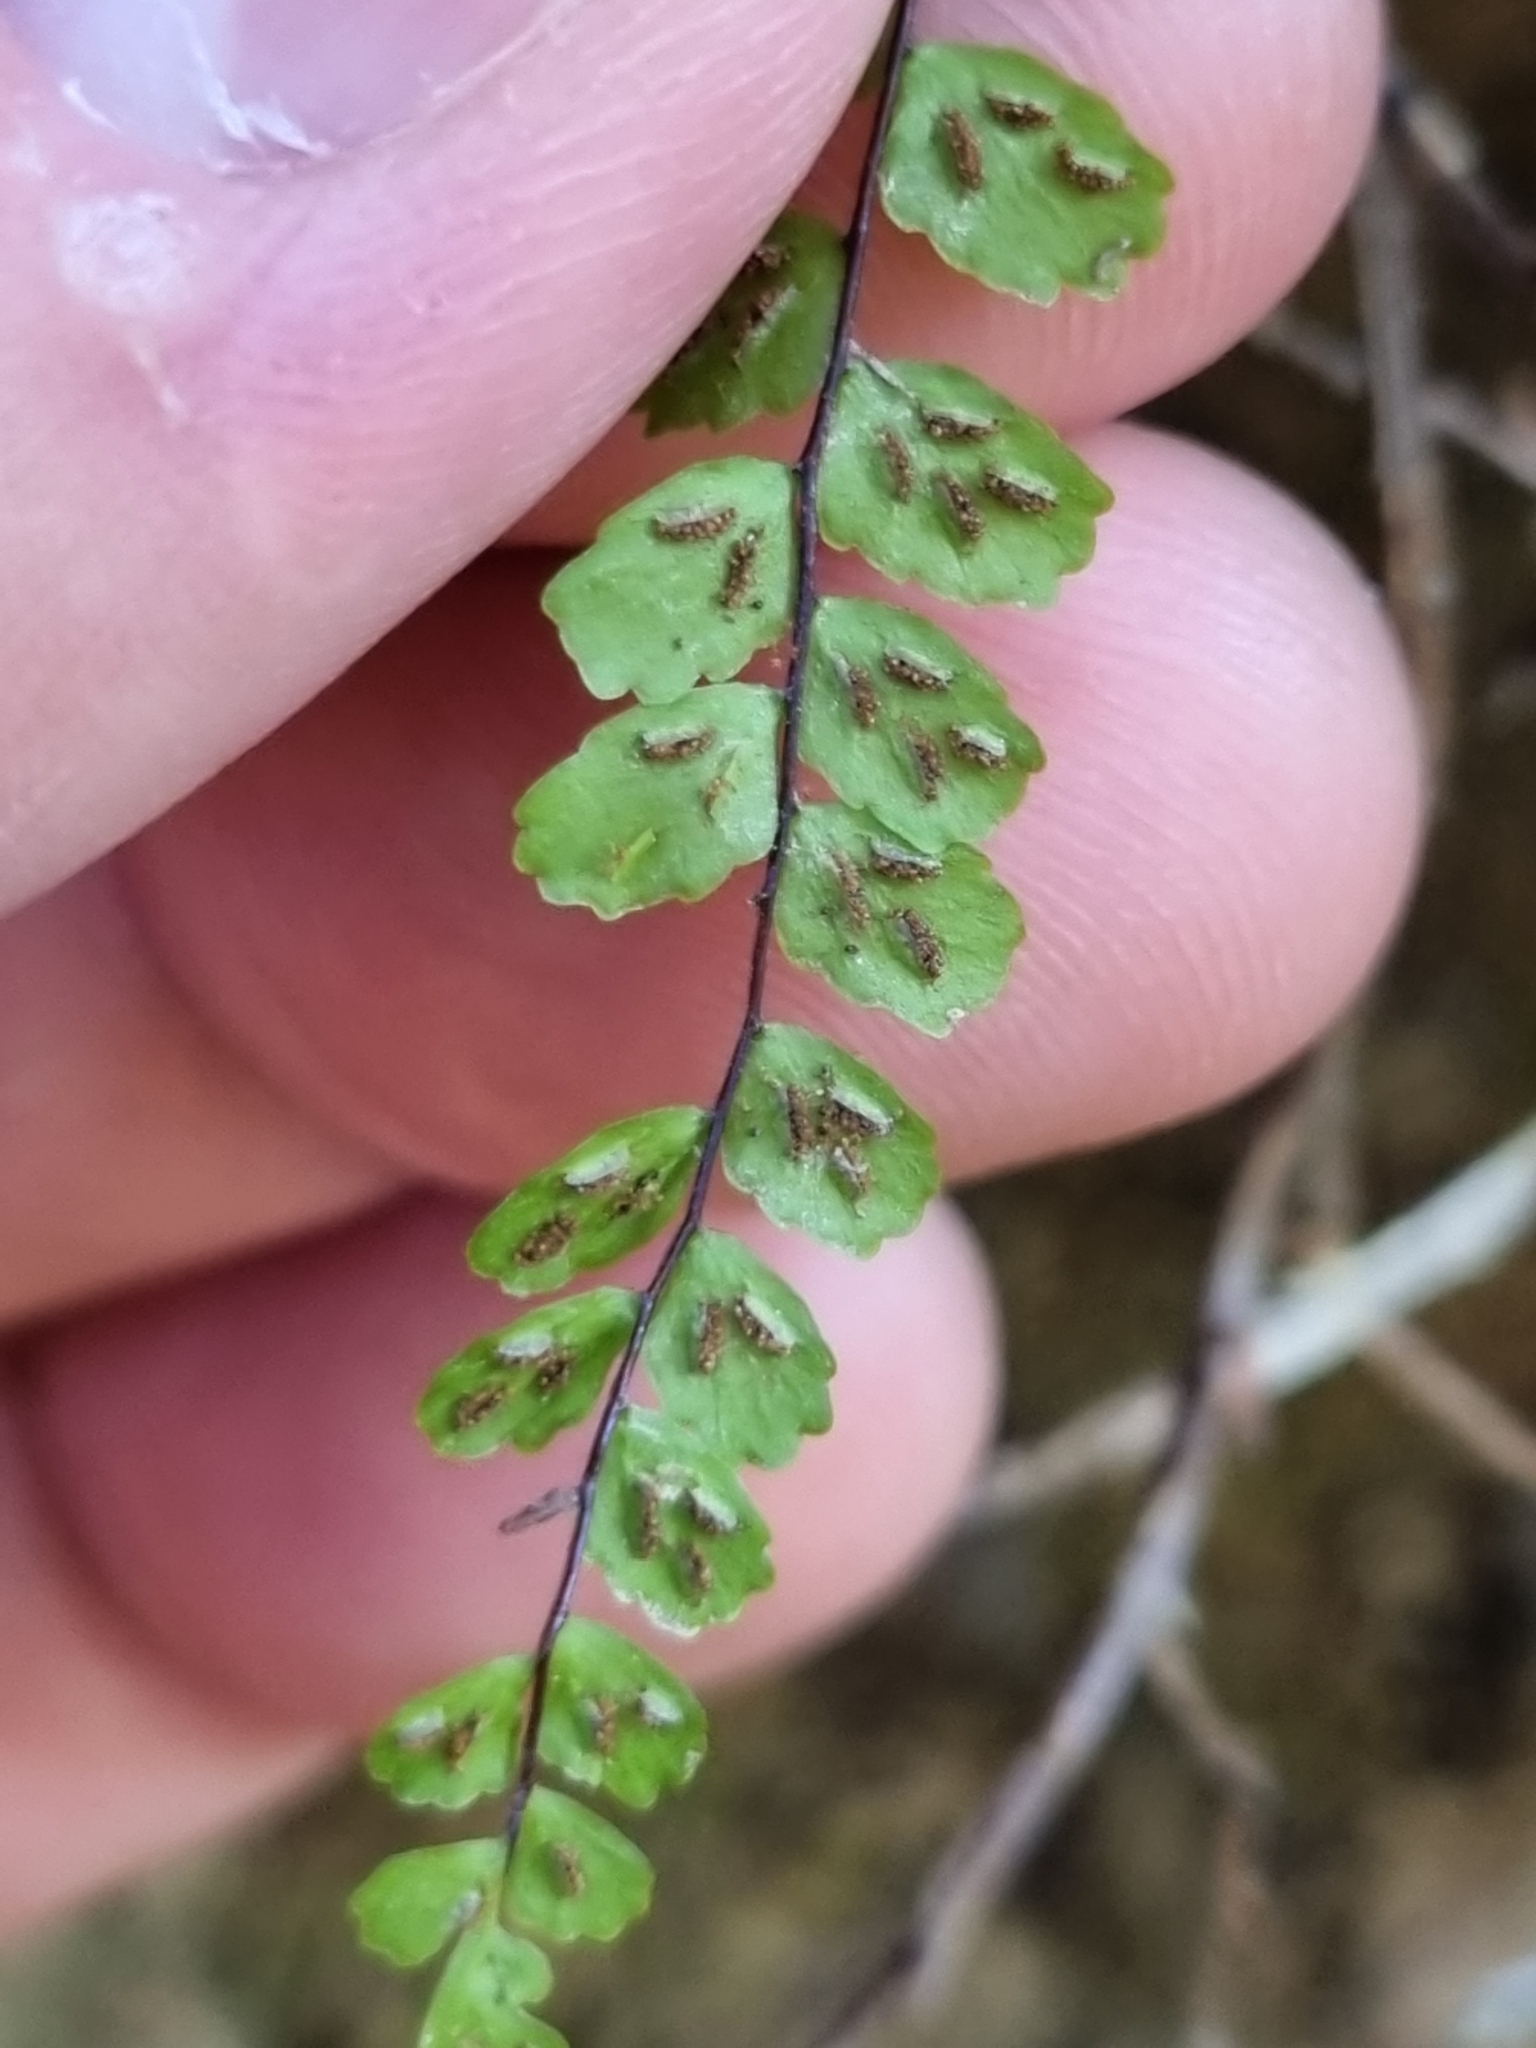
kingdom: Plantae
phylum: Tracheophyta
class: Polypodiopsida
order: Polypodiales
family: Aspleniaceae
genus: Asplenium
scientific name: Asplenium trichomanes
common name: Maidenhair spleenwort
